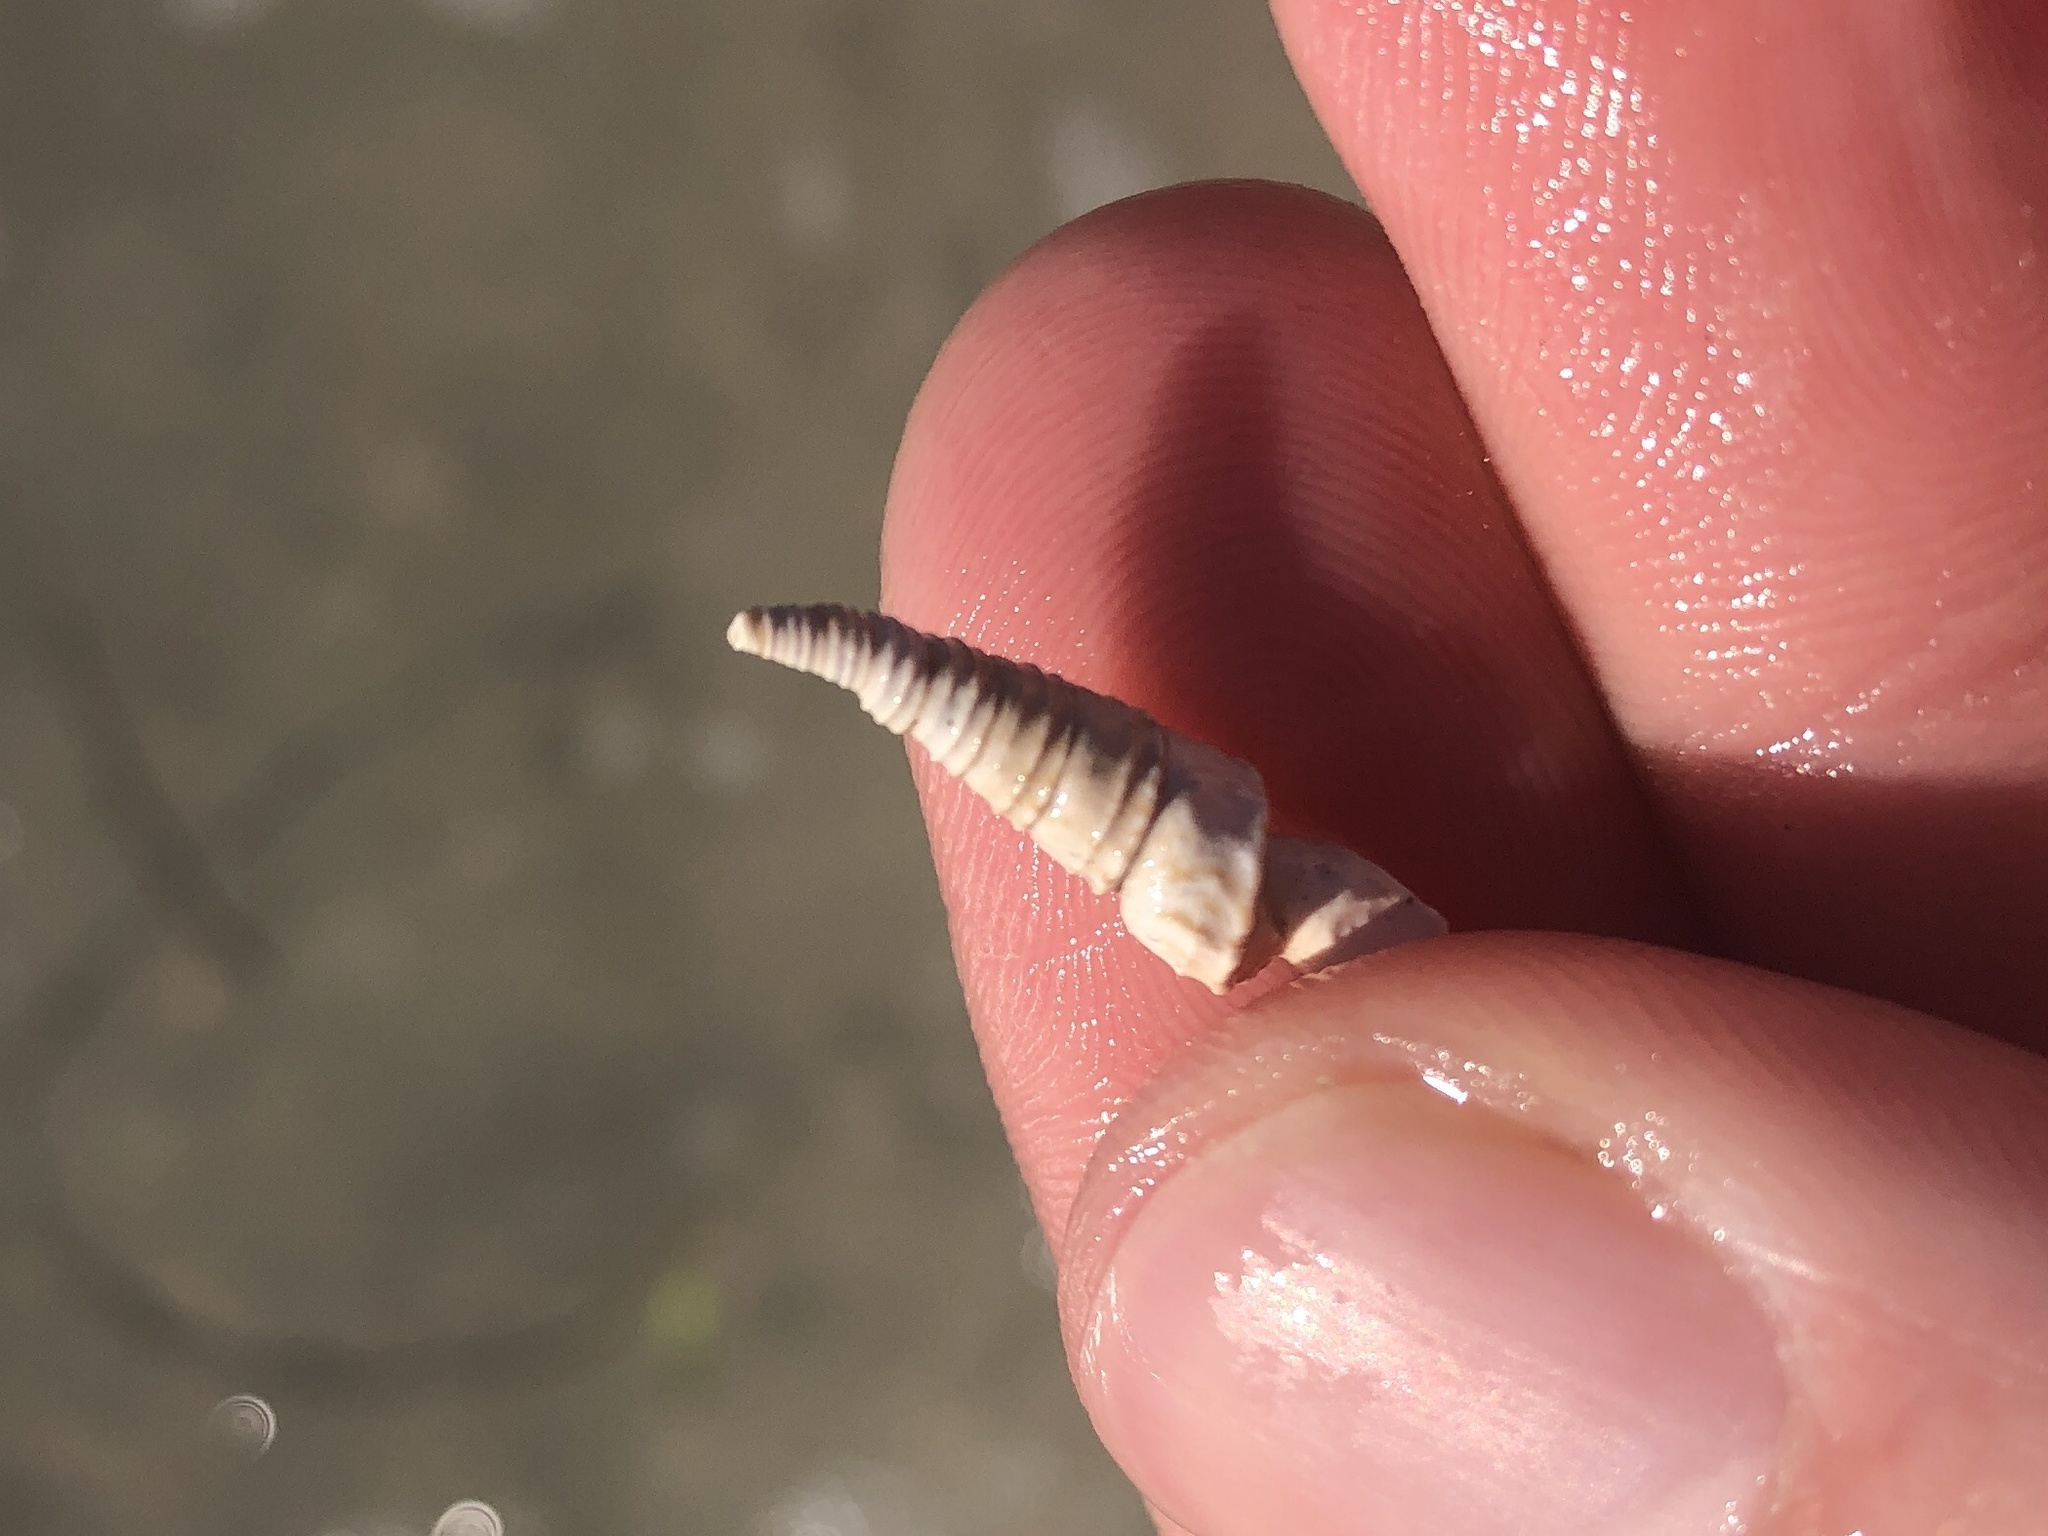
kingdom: Animalia
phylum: Mollusca
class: Gastropoda
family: Turritellidae
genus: Vermicularia
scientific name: Vermicularia fargoi
